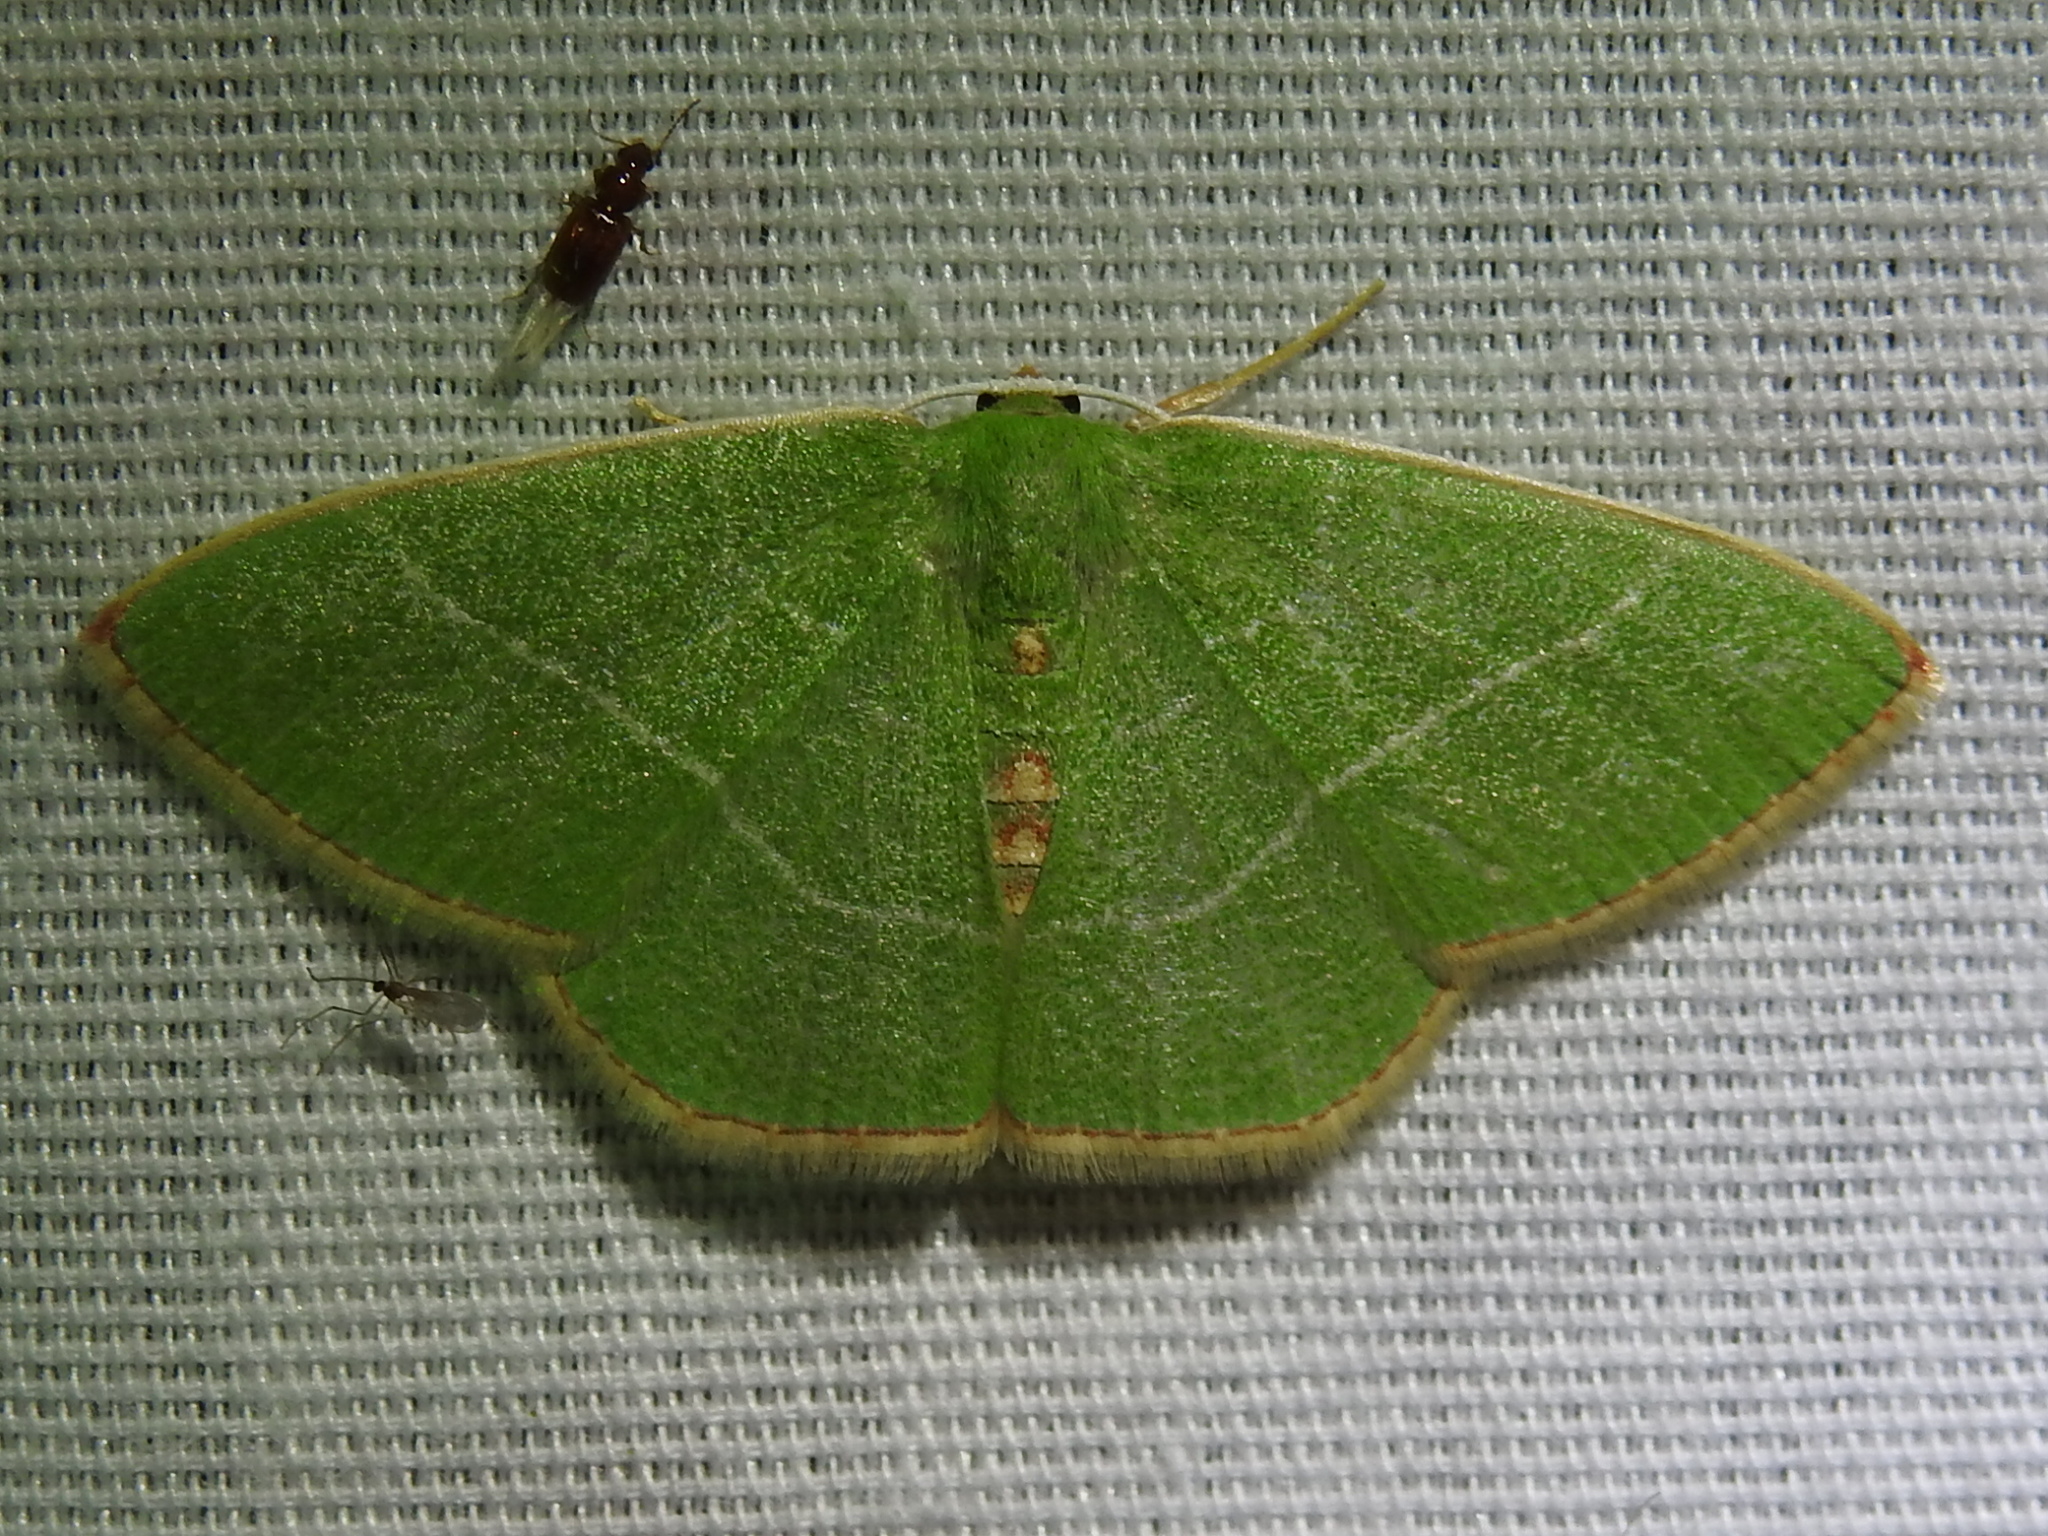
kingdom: Animalia
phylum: Arthropoda
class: Insecta
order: Lepidoptera
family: Geometridae
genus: Nemoria
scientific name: Nemoria bifilata
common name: White-barred emerald moth
